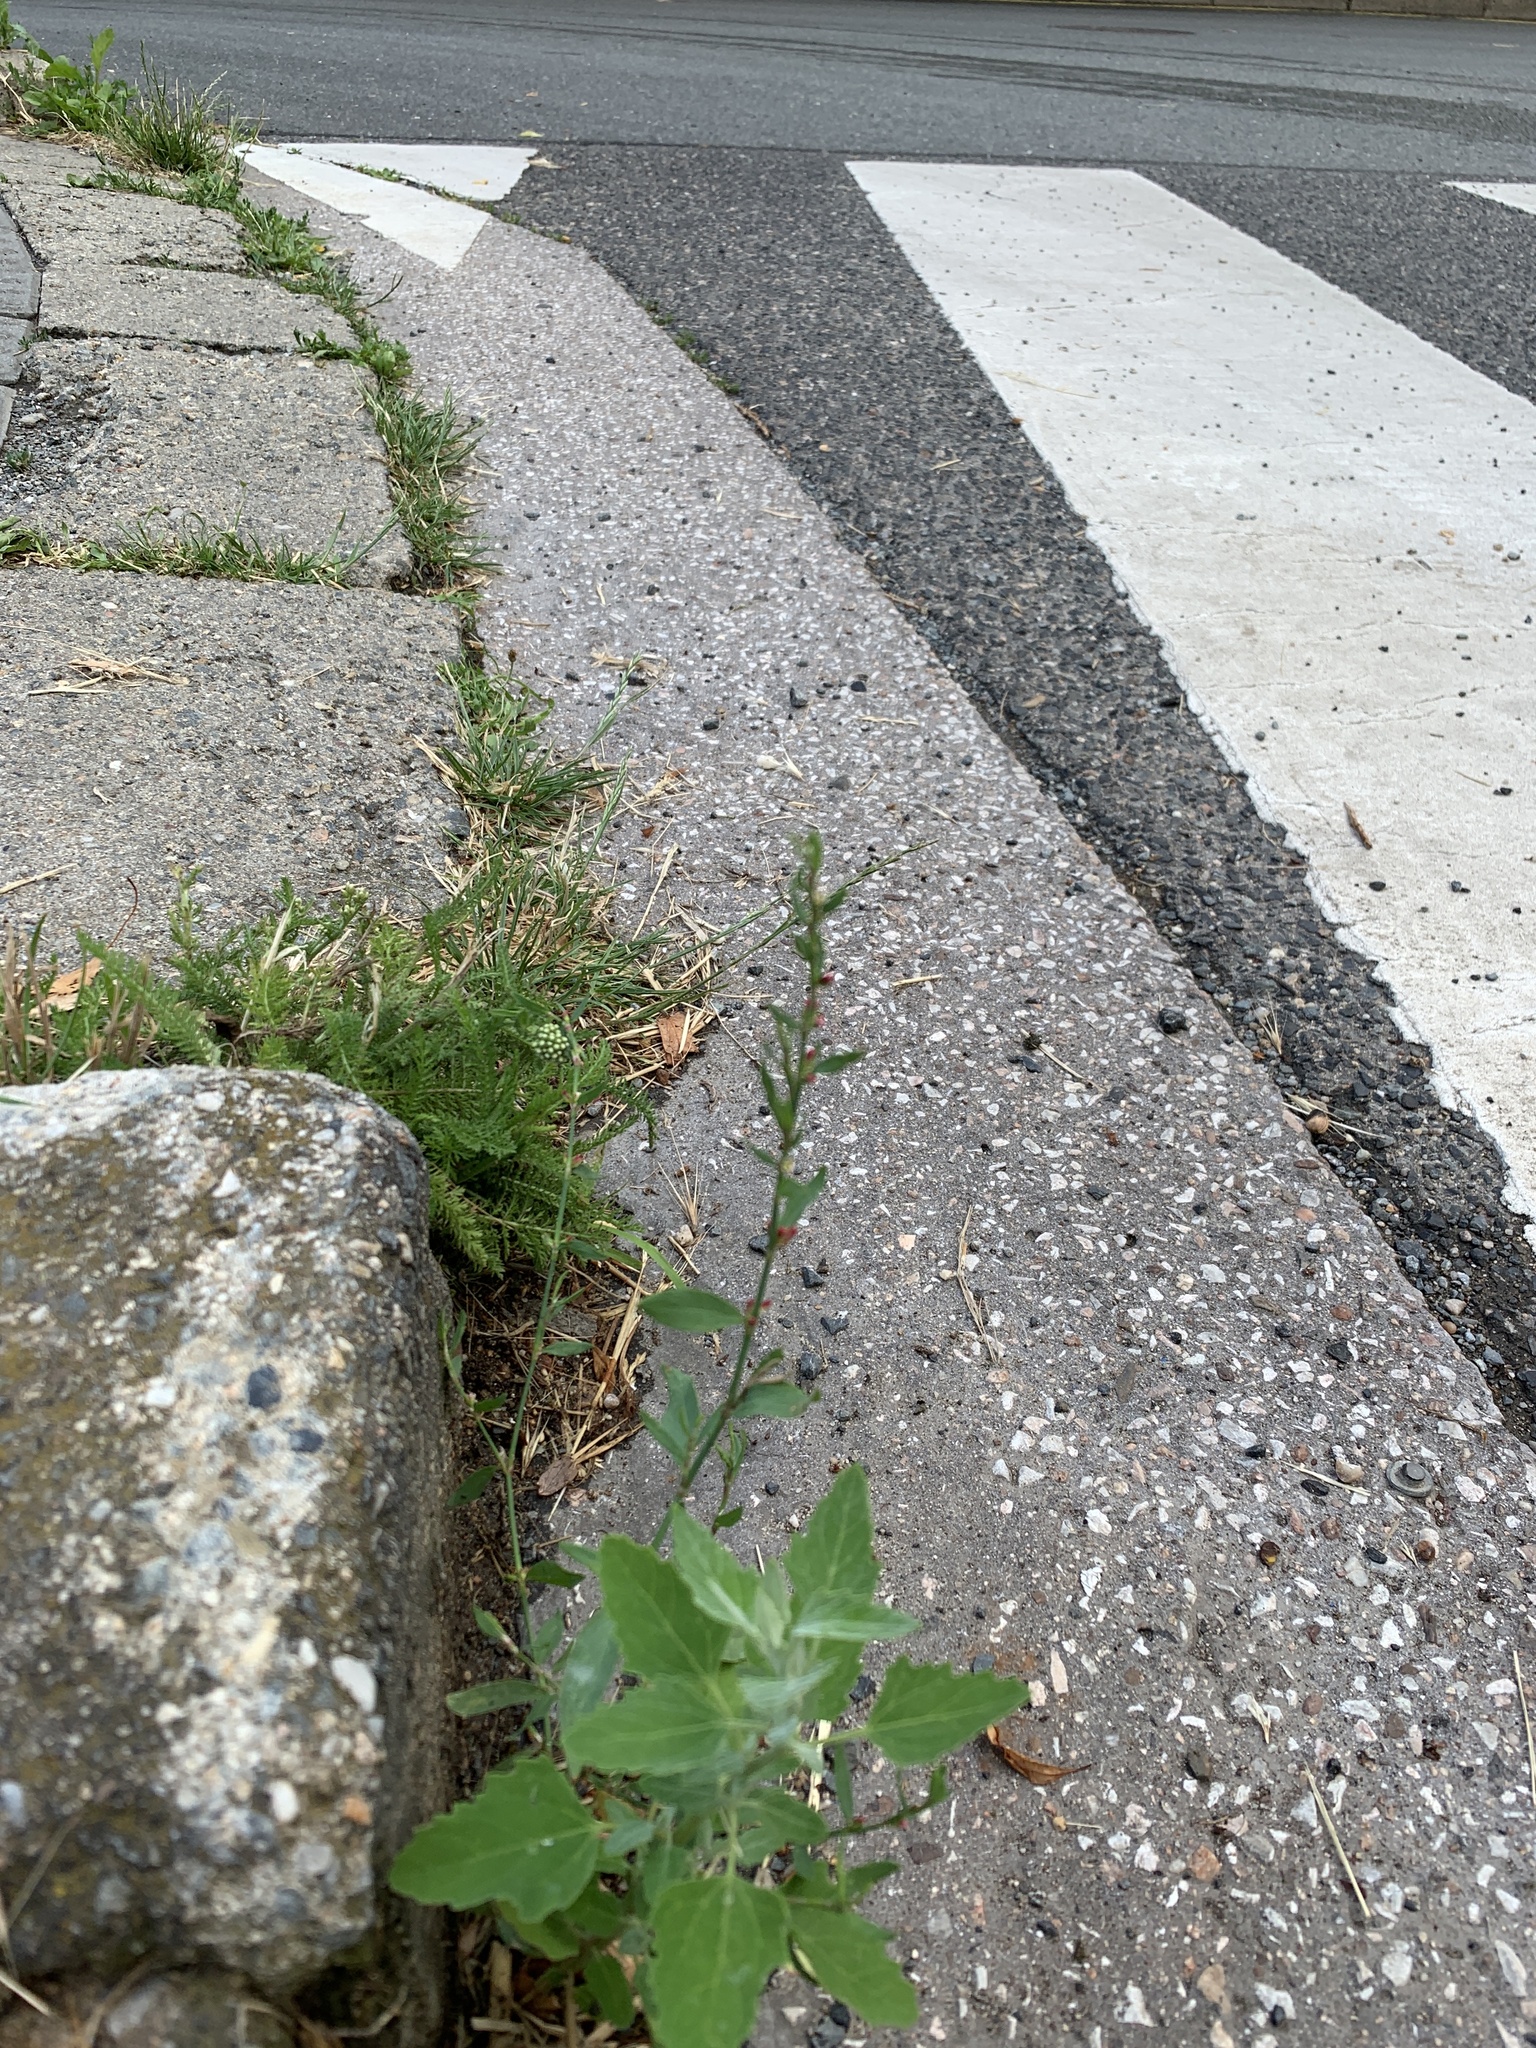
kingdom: Plantae
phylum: Tracheophyta
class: Magnoliopsida
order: Caryophyllales
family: Polygonaceae
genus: Polygonum
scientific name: Polygonum
